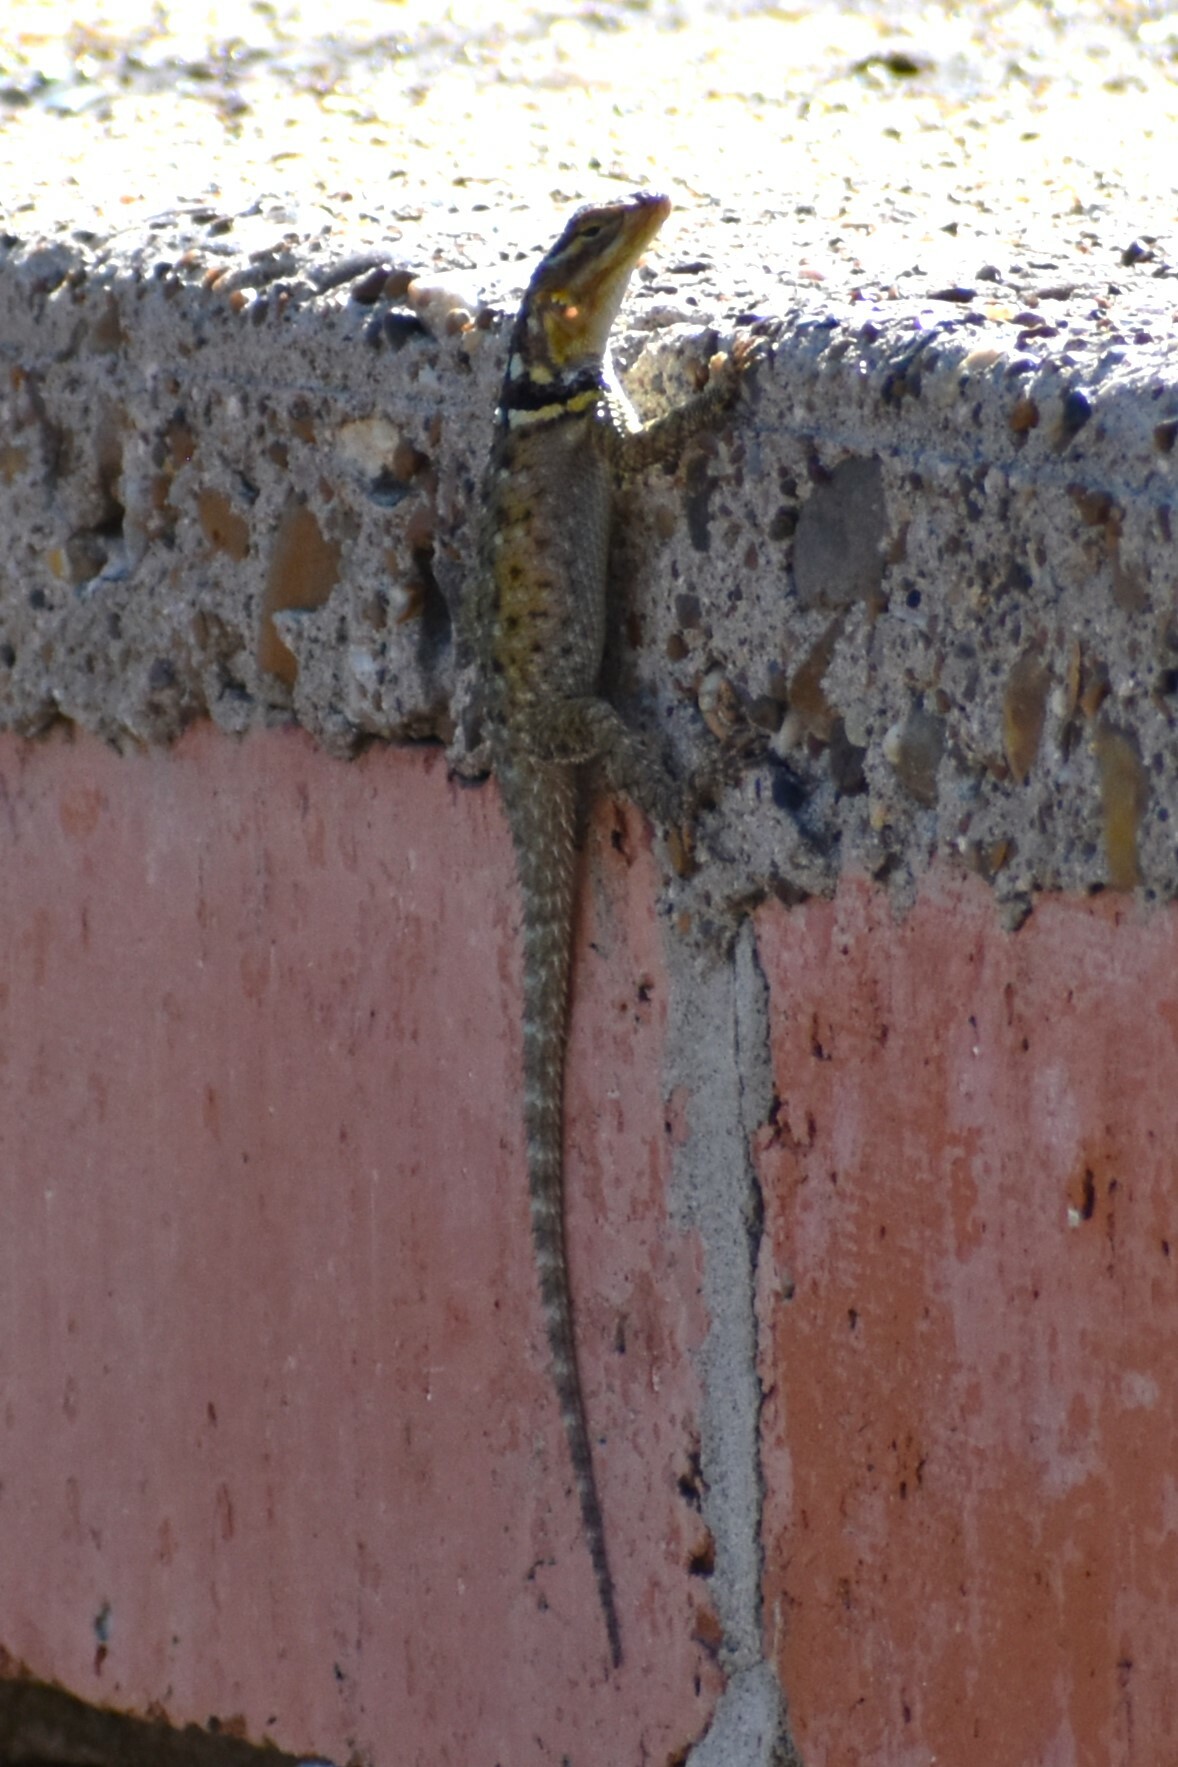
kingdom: Animalia
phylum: Chordata
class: Squamata
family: Phrynosomatidae
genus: Sceloporus
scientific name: Sceloporus cyanogenys
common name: Blue spiny lizard
